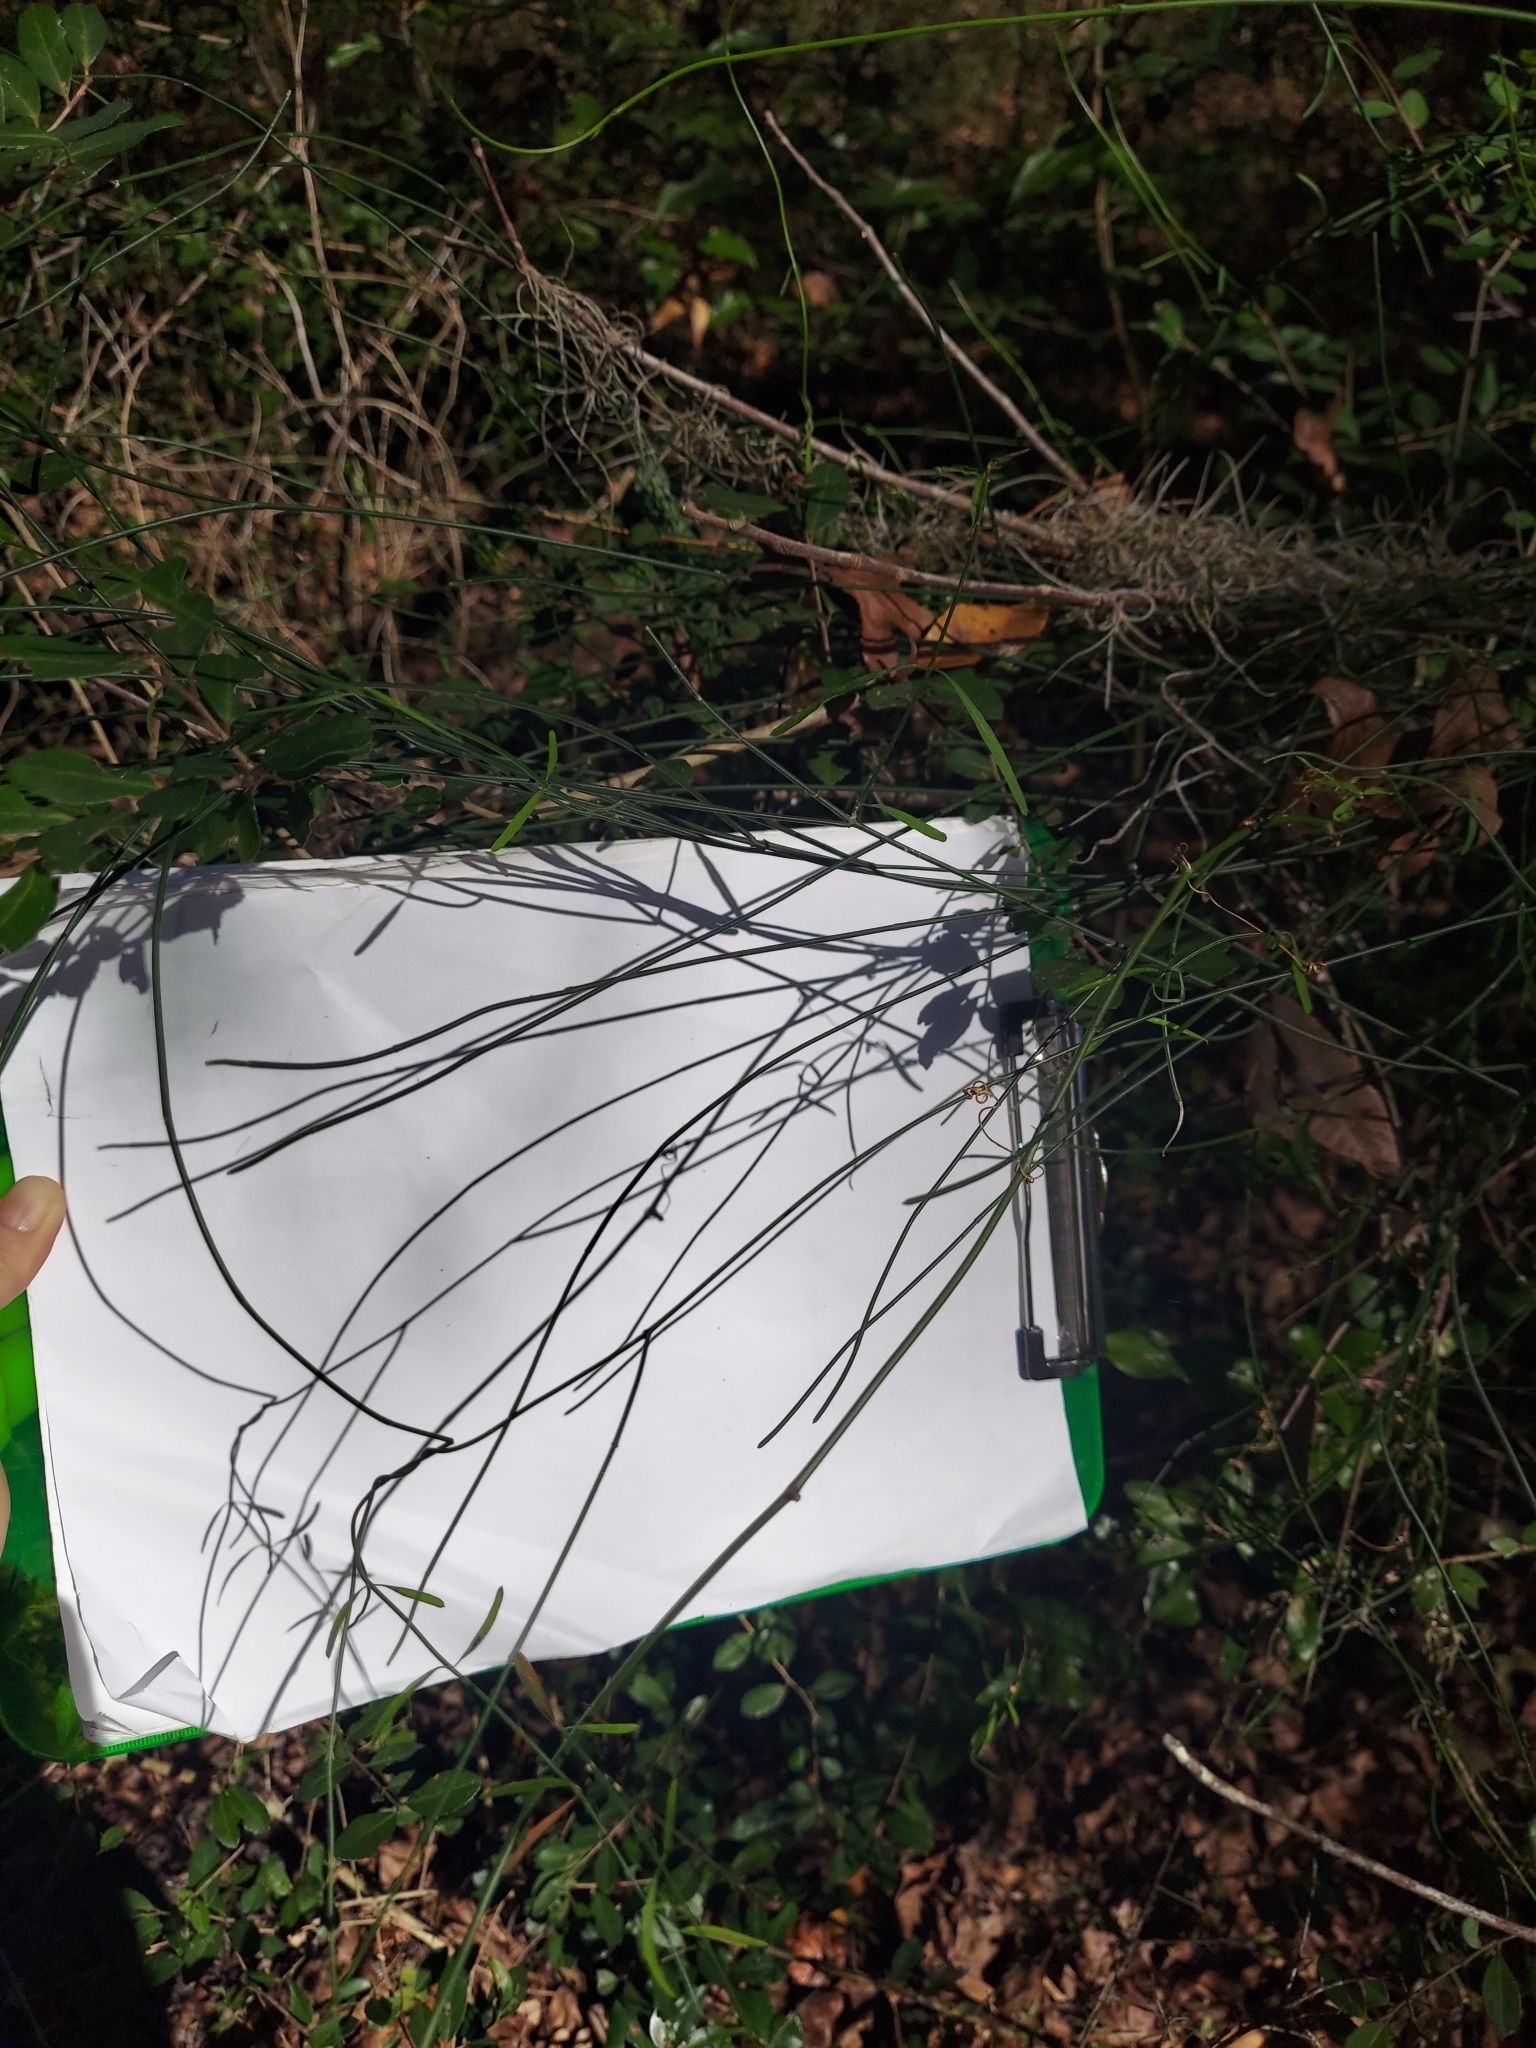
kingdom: Plantae
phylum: Tracheophyta
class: Magnoliopsida
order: Gentianales
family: Apocynaceae
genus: Orthosia
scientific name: Orthosia scoparia
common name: Leafless swallow-wort
